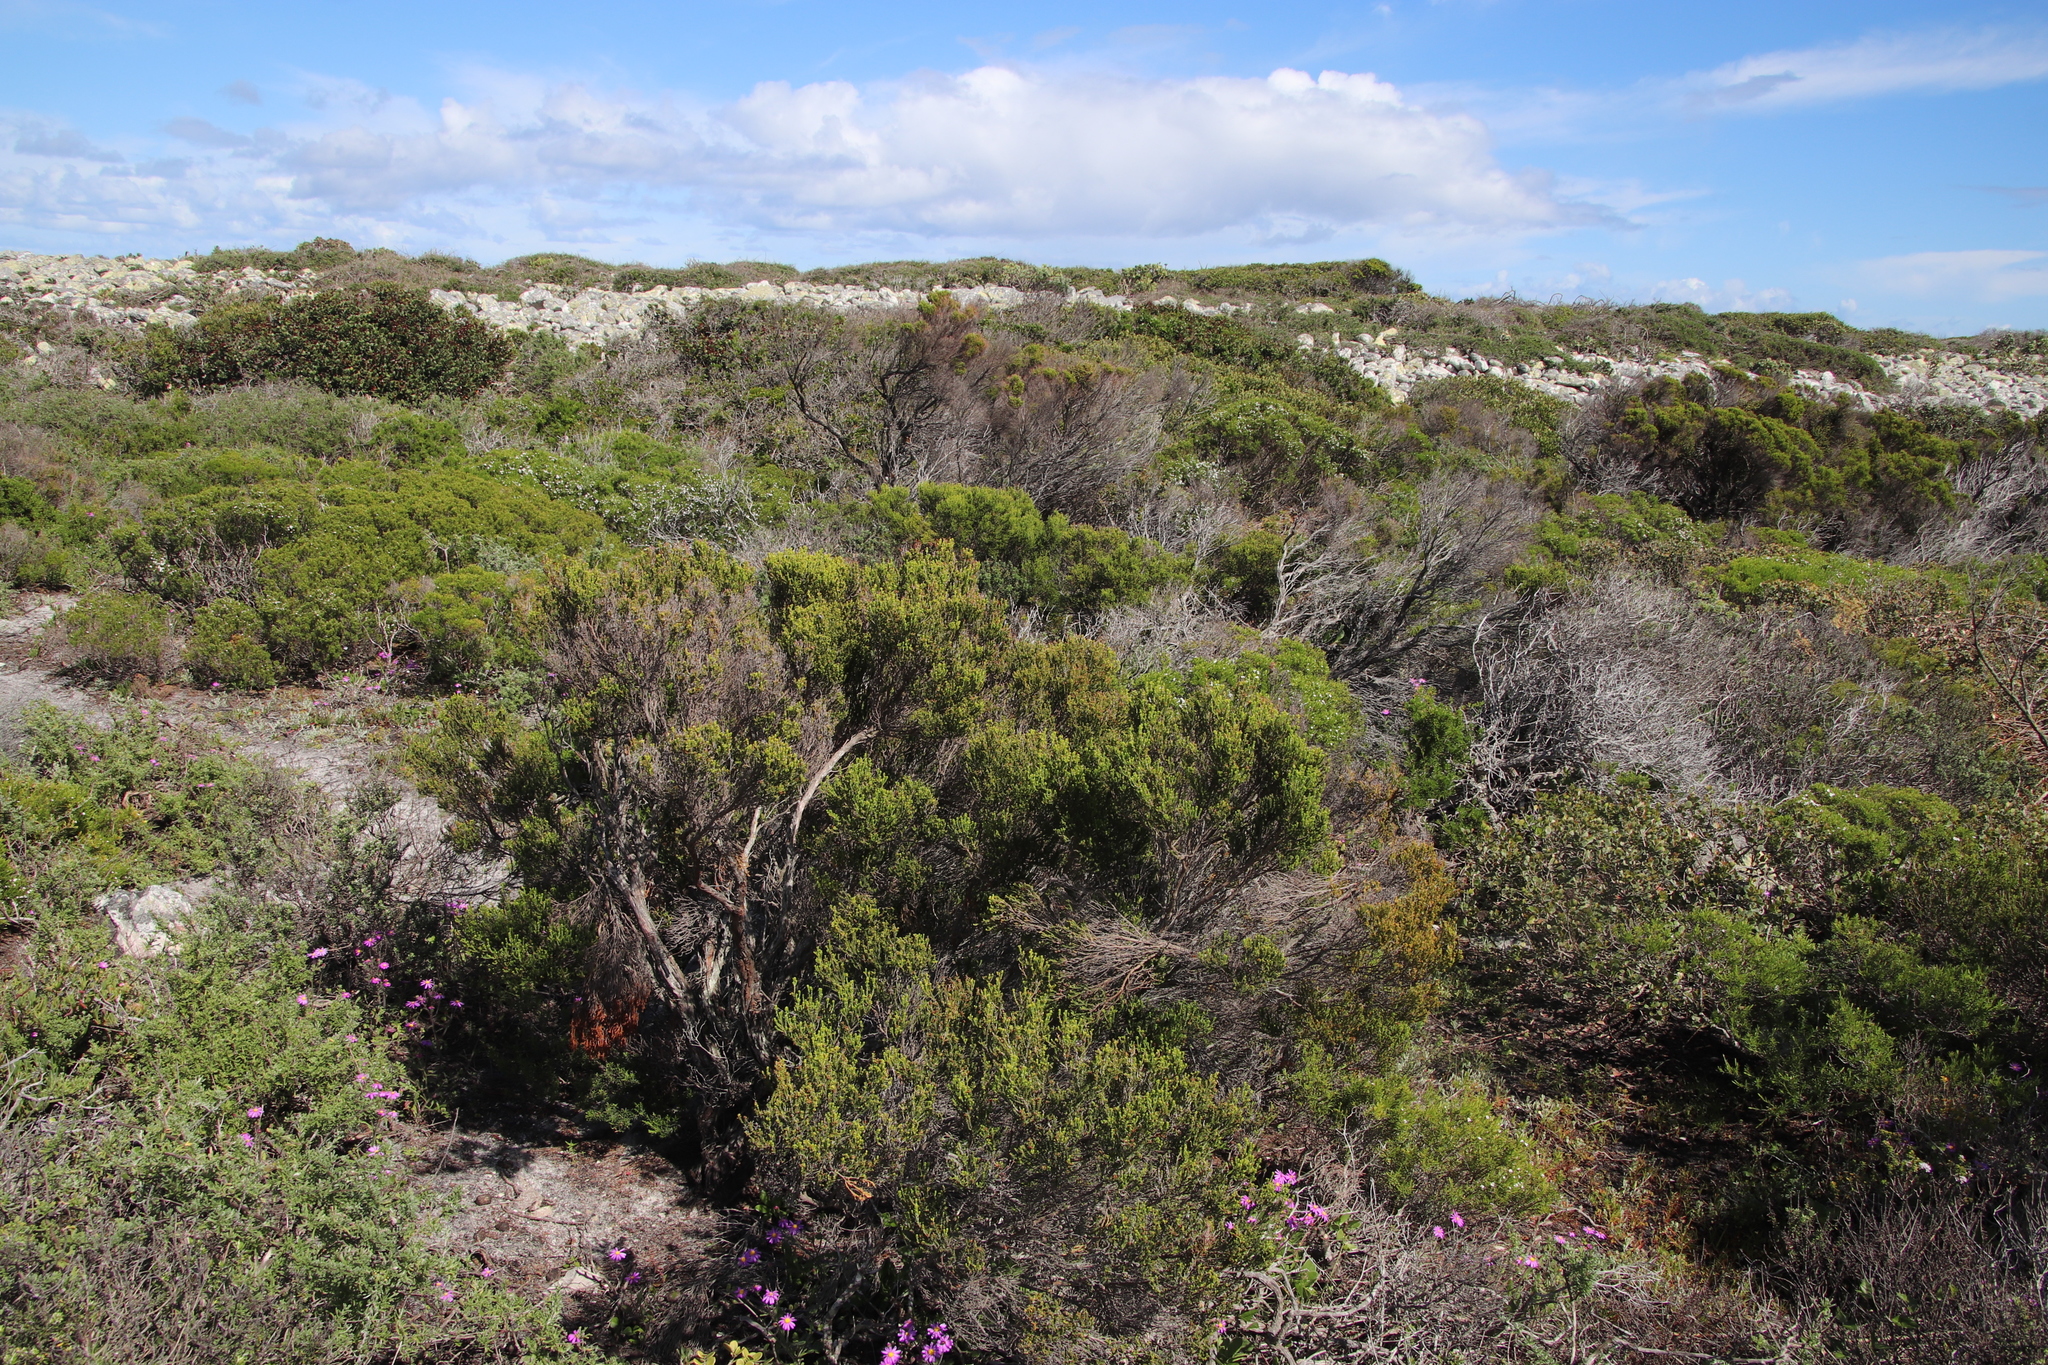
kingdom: Plantae
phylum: Tracheophyta
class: Magnoliopsida
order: Ericales
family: Ericaceae
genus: Erica
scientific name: Erica tristis
